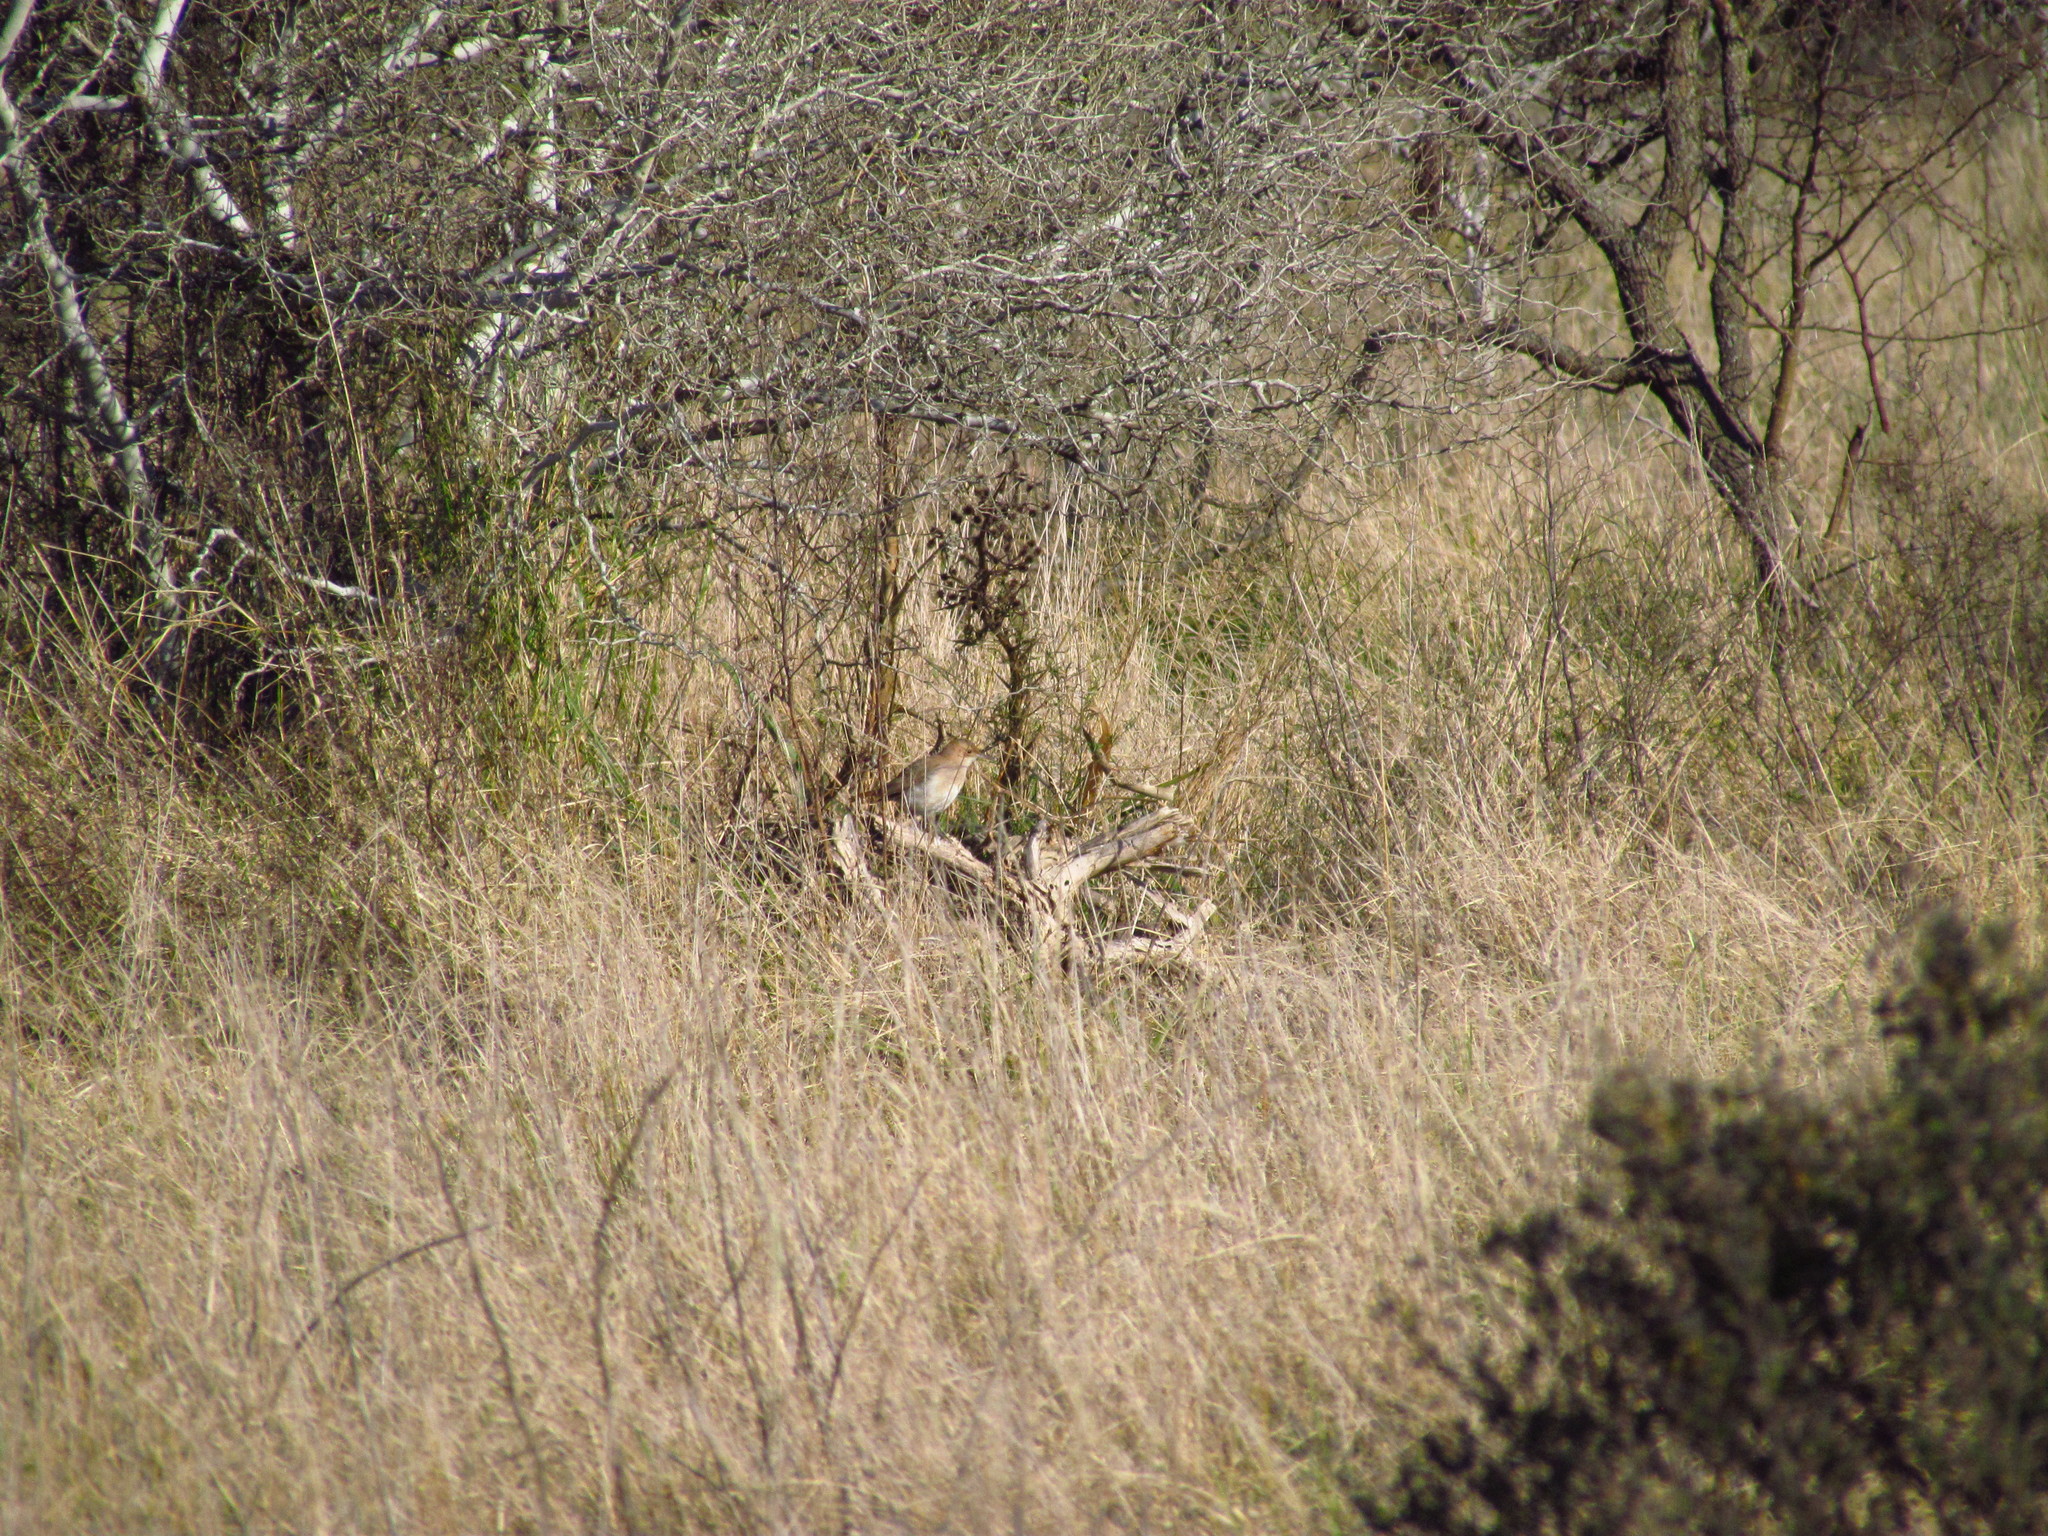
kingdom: Animalia
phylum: Chordata
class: Aves
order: Passeriformes
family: Furnariidae
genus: Furnarius
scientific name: Furnarius rufus
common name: Rufous hornero
